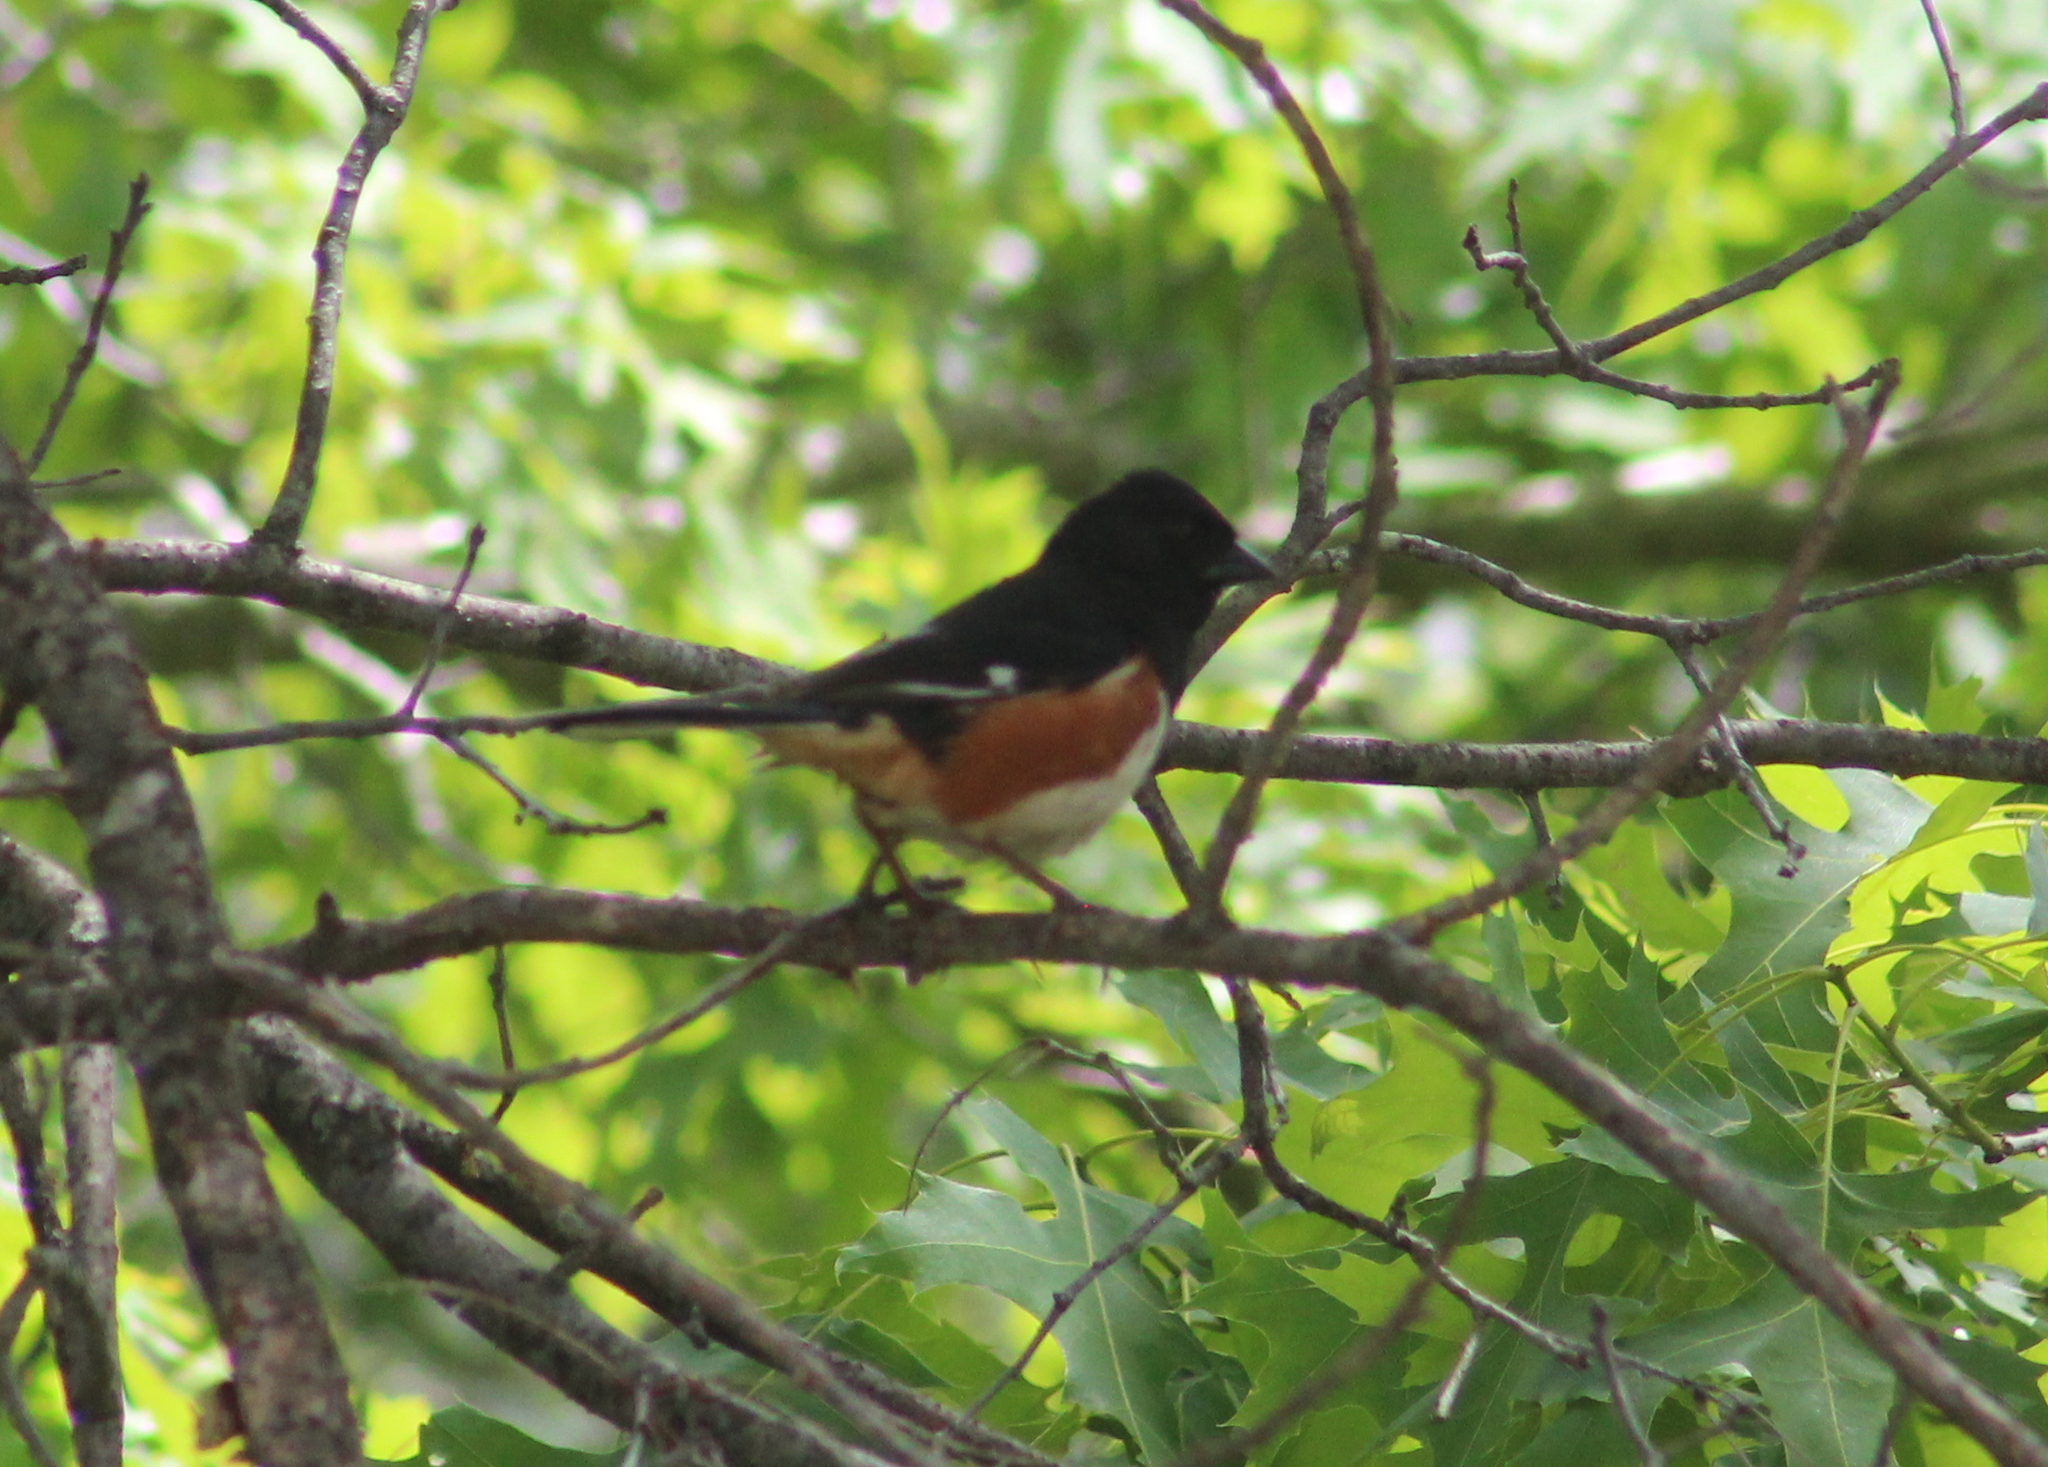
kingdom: Animalia
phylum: Chordata
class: Aves
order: Passeriformes
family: Passerellidae
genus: Pipilo
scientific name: Pipilo erythrophthalmus
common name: Eastern towhee
